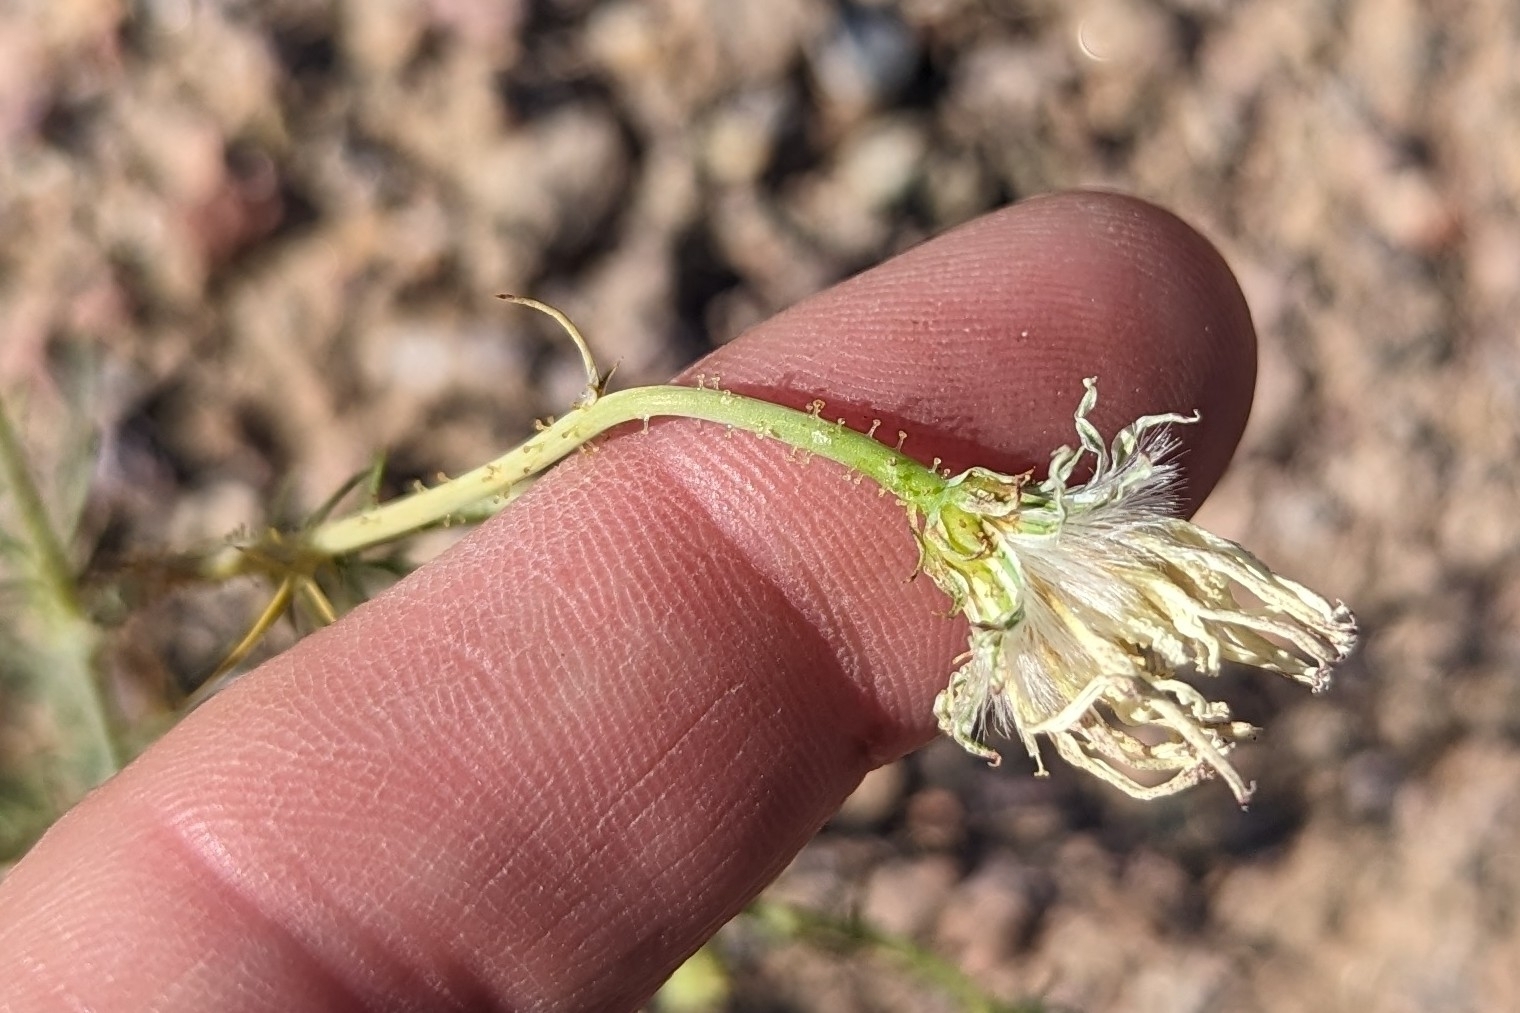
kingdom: Plantae
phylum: Tracheophyta
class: Magnoliopsida
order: Asterales
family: Asteraceae
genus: Calycoseris
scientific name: Calycoseris wrightii
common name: White tackstem
